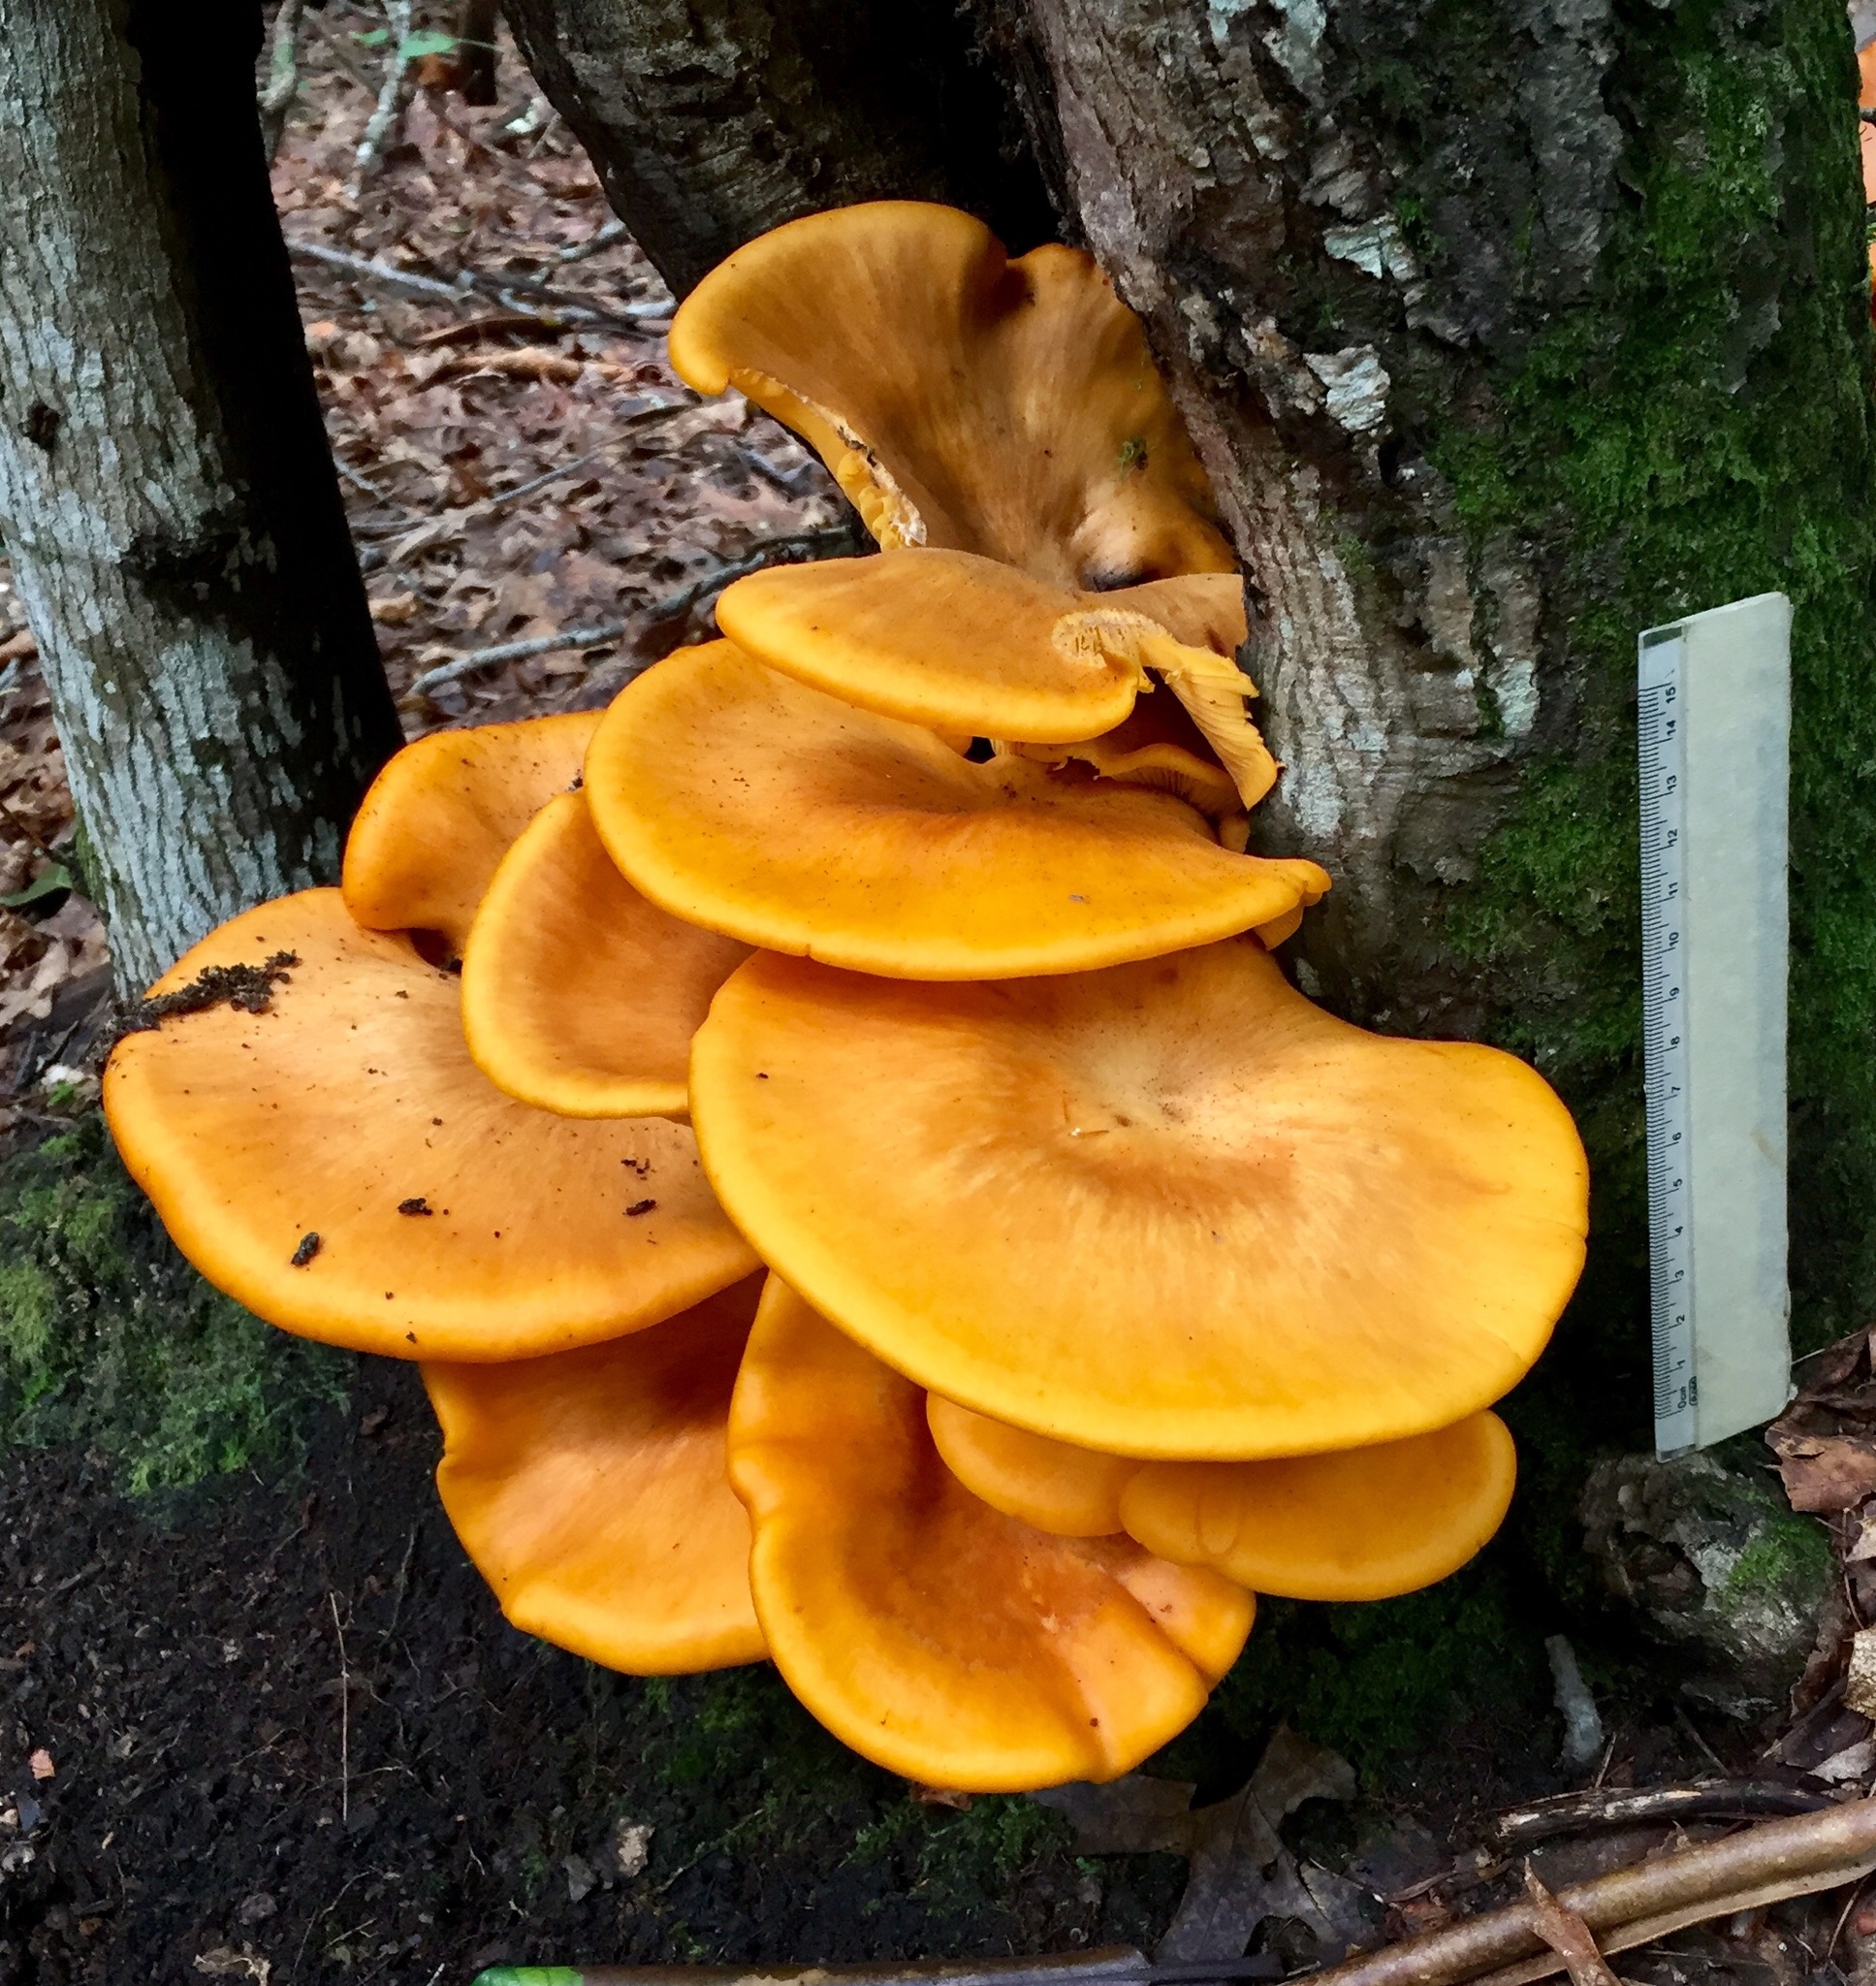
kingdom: Fungi
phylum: Basidiomycota
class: Agaricomycetes
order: Agaricales
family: Omphalotaceae
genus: Omphalotus
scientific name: Omphalotus illudens
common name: Jack o lantern
